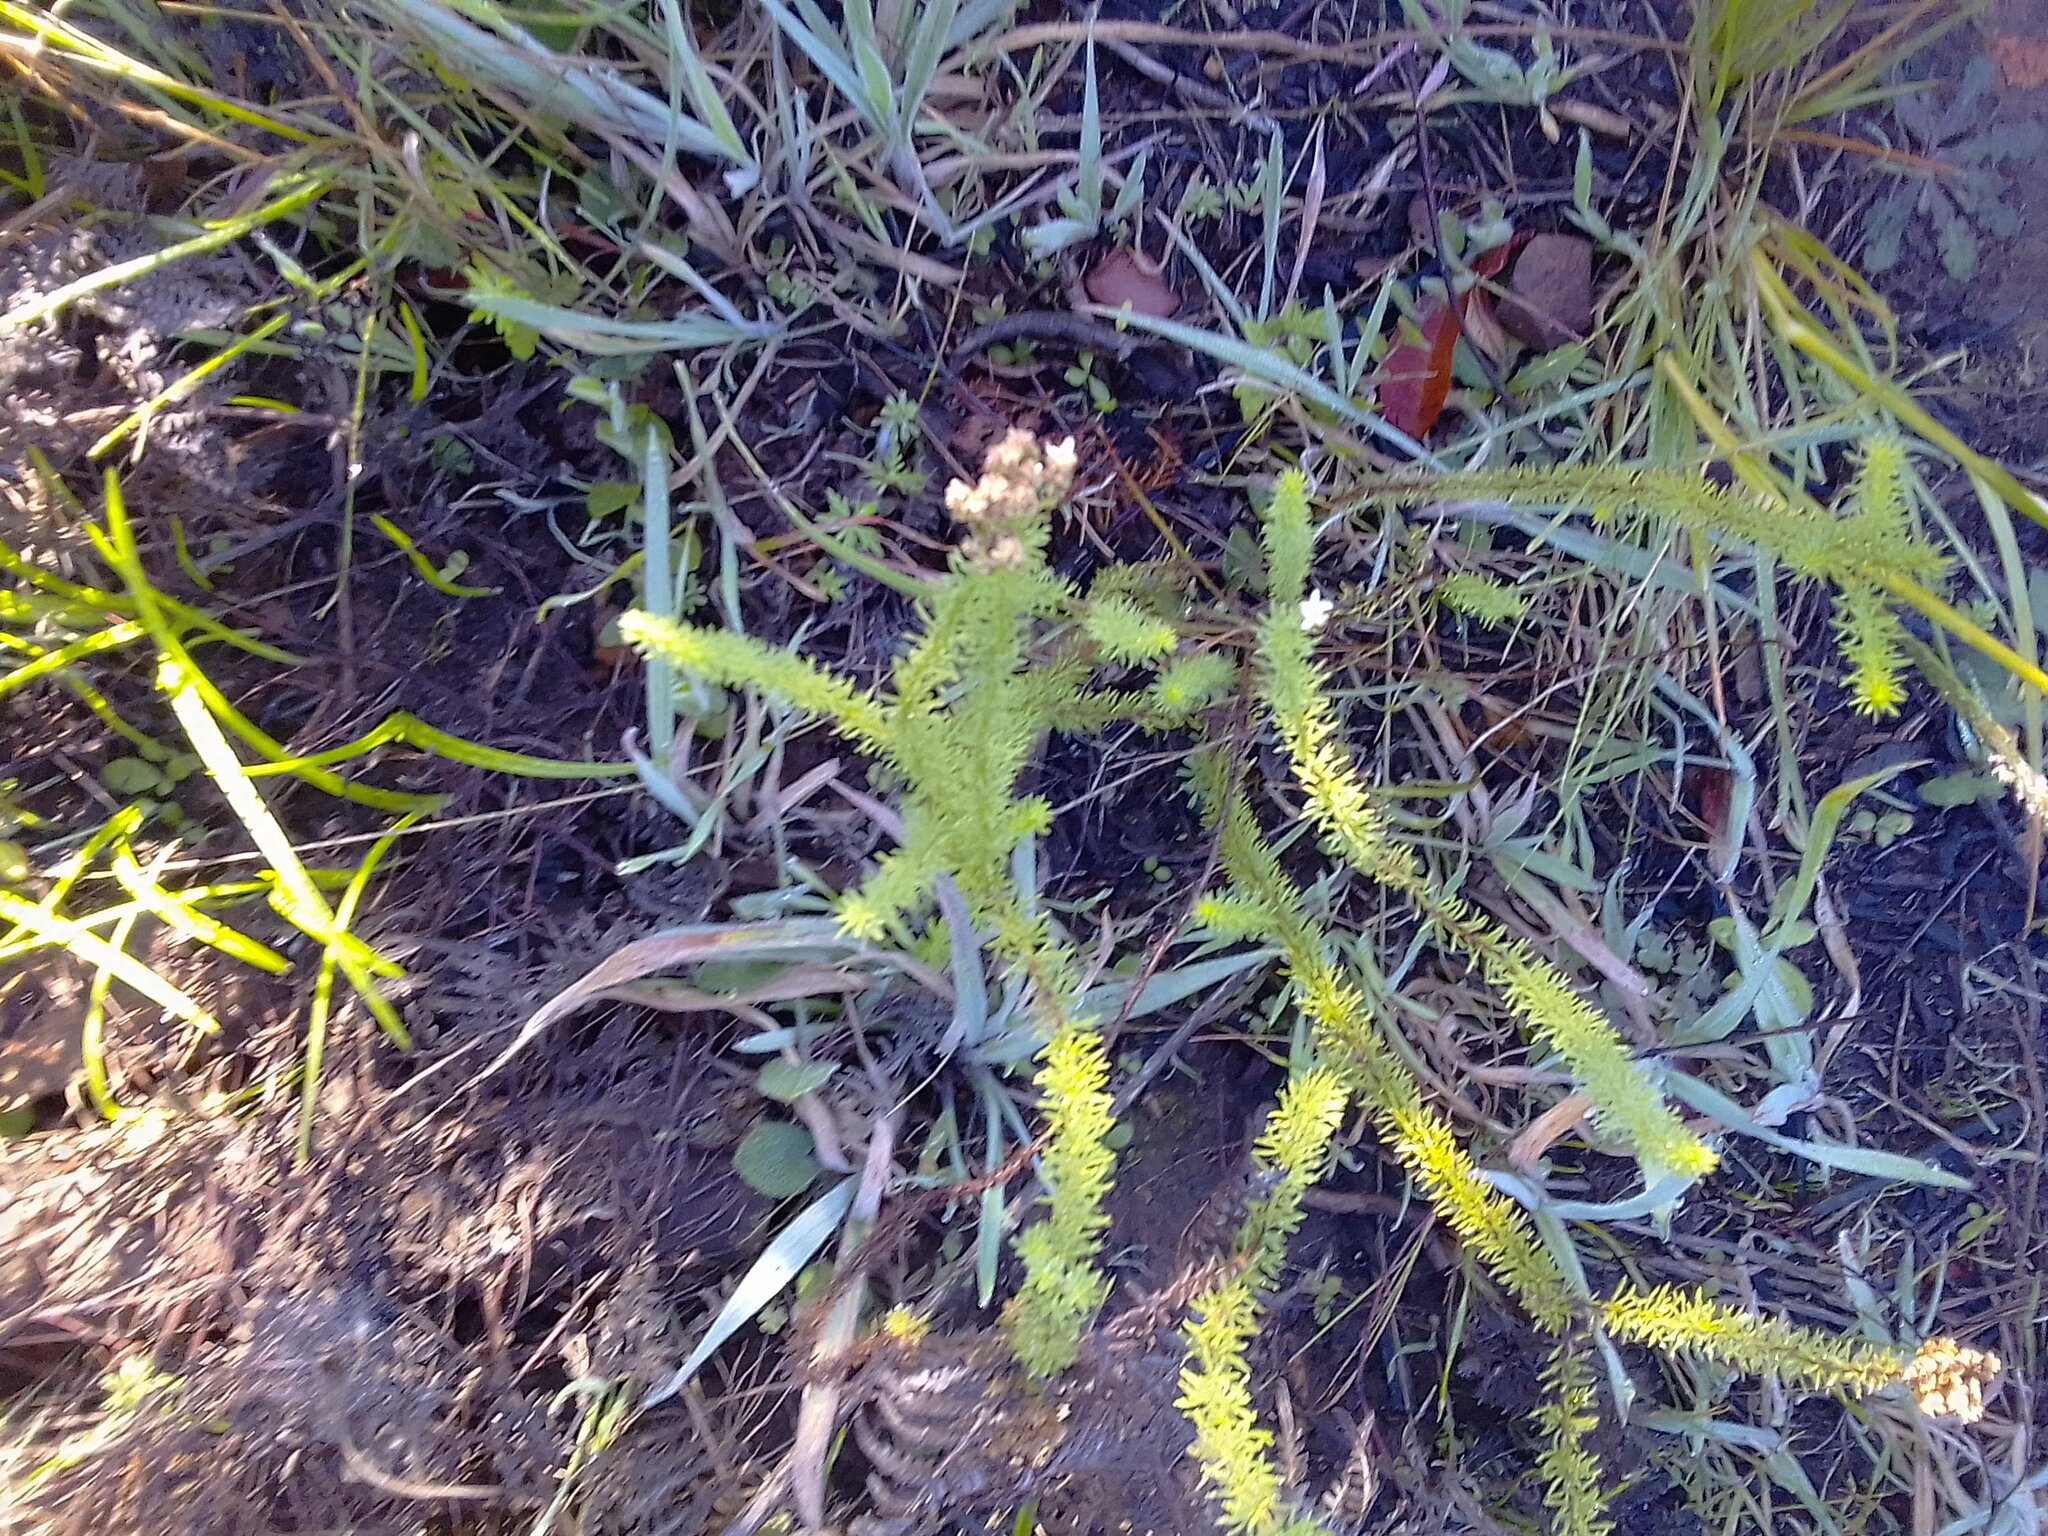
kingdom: Plantae
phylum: Tracheophyta
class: Magnoliopsida
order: Lamiales
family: Scrophulariaceae
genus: Selago
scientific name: Selago corymbosa
